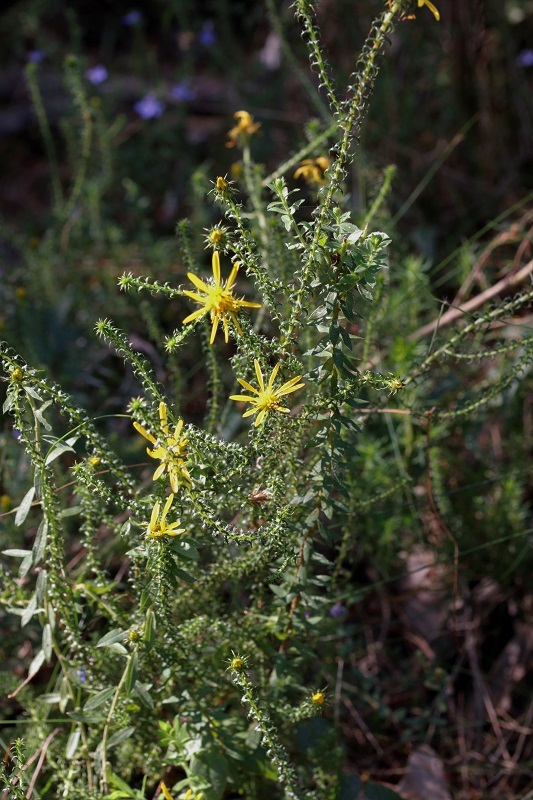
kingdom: Plantae
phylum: Tracheophyta
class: Magnoliopsida
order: Asterales
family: Asteraceae
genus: Cullumia
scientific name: Cullumia decurrens
